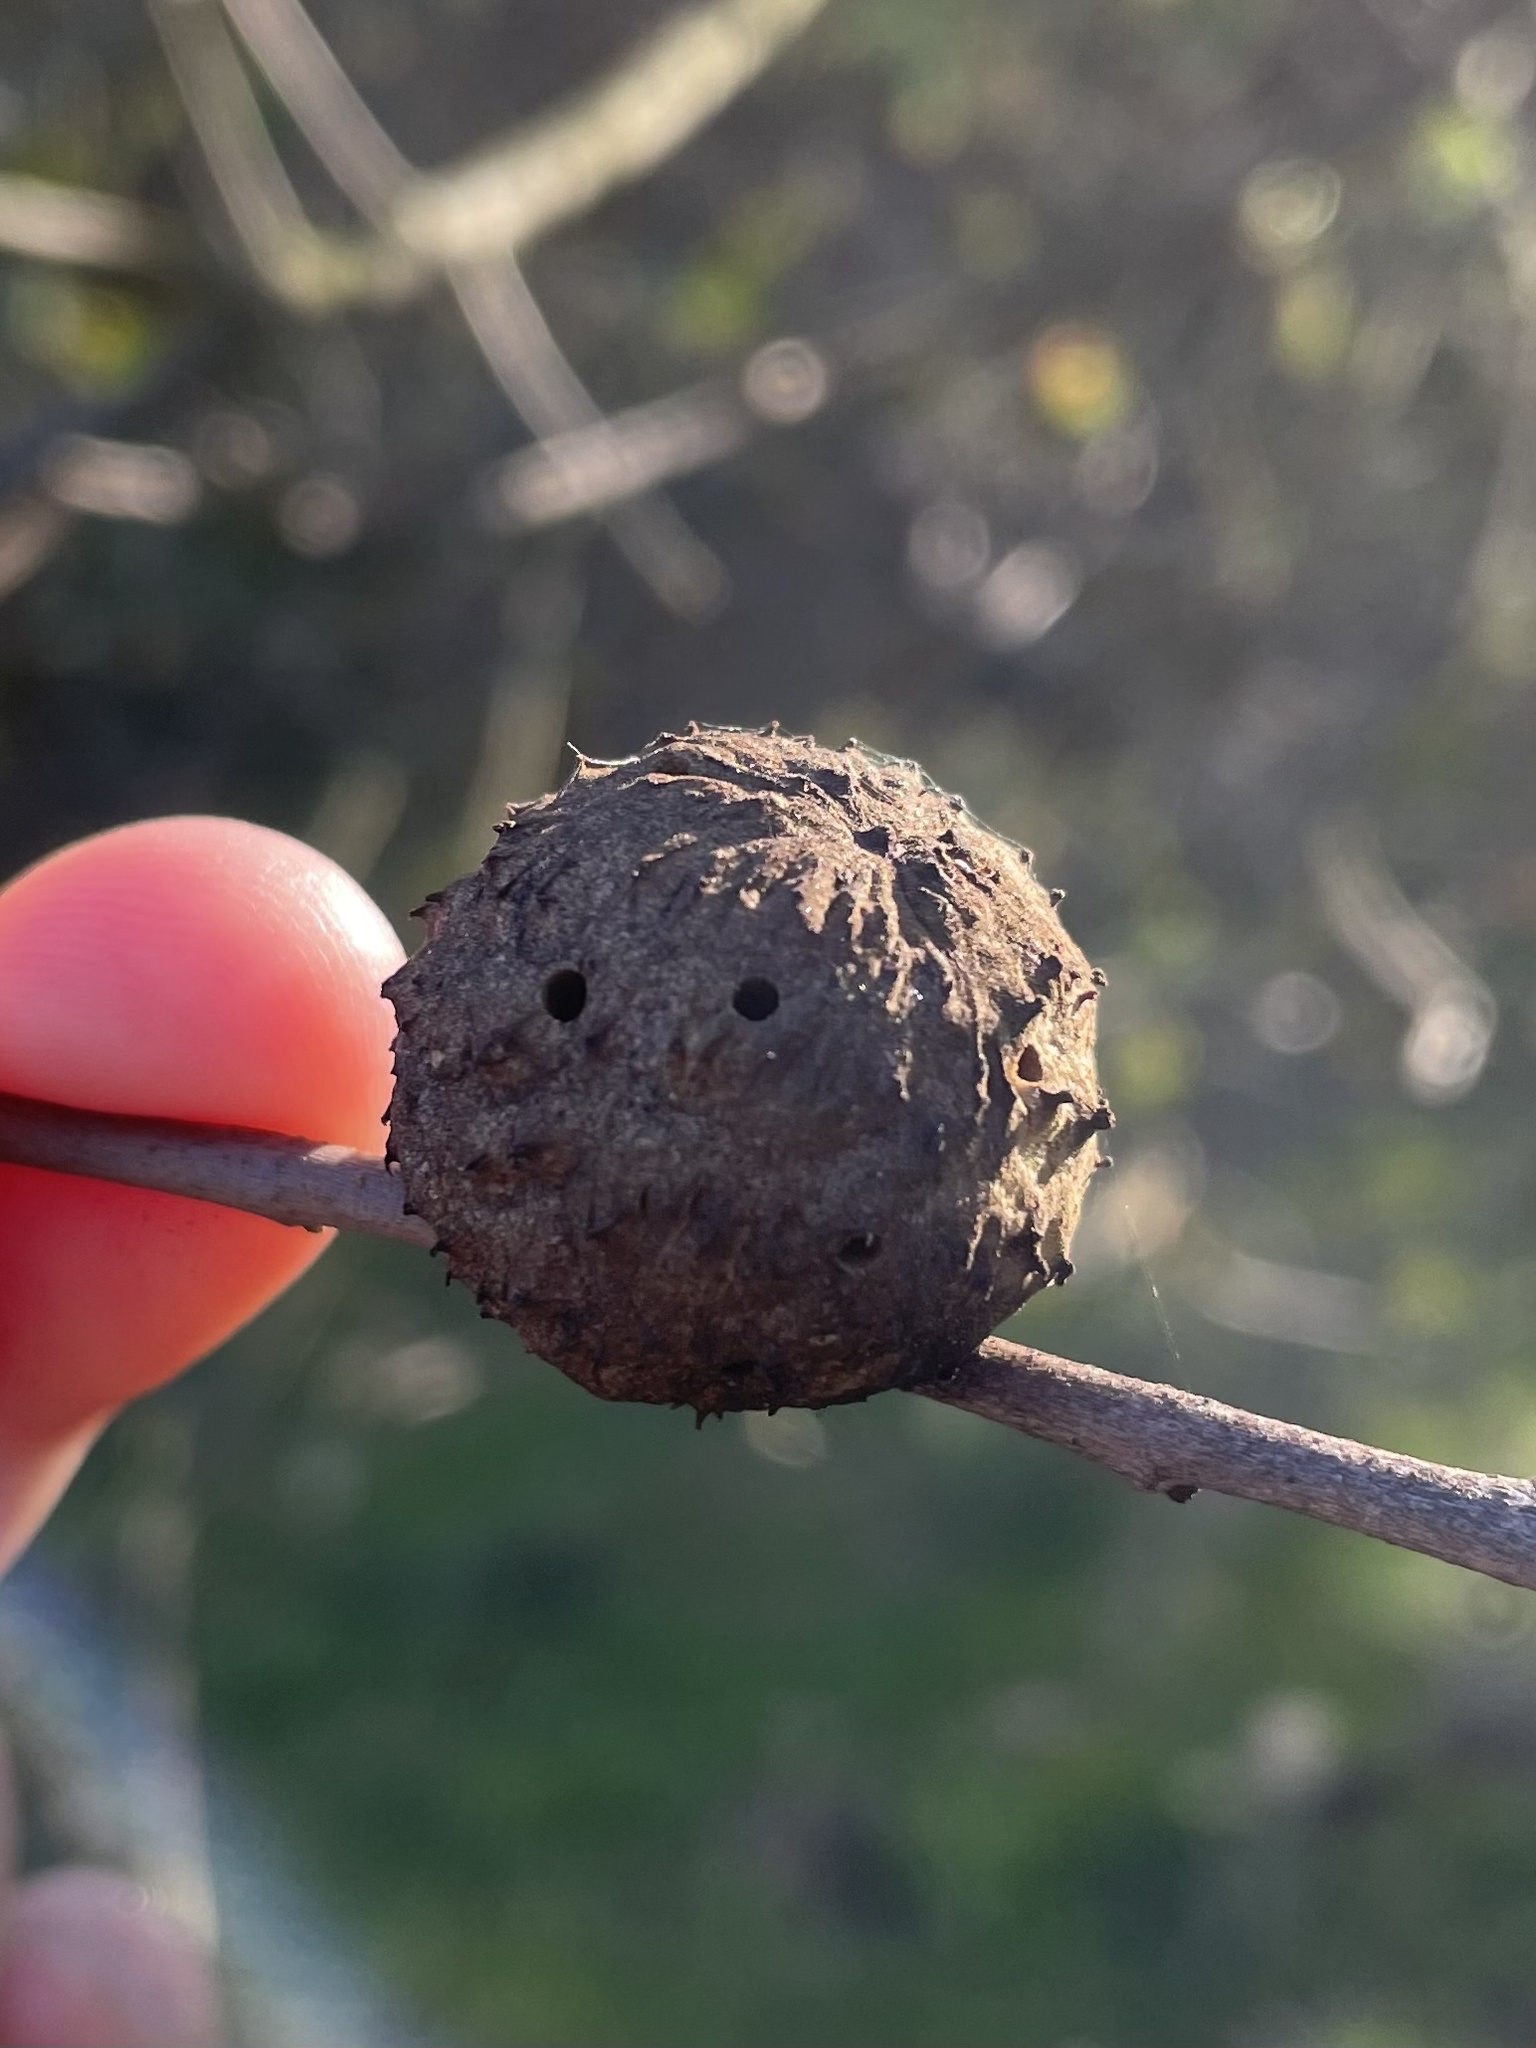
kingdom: Animalia
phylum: Arthropoda
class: Insecta
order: Hymenoptera
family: Cynipidae
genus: Amphibolips
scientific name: Amphibolips quercuspomiformis
